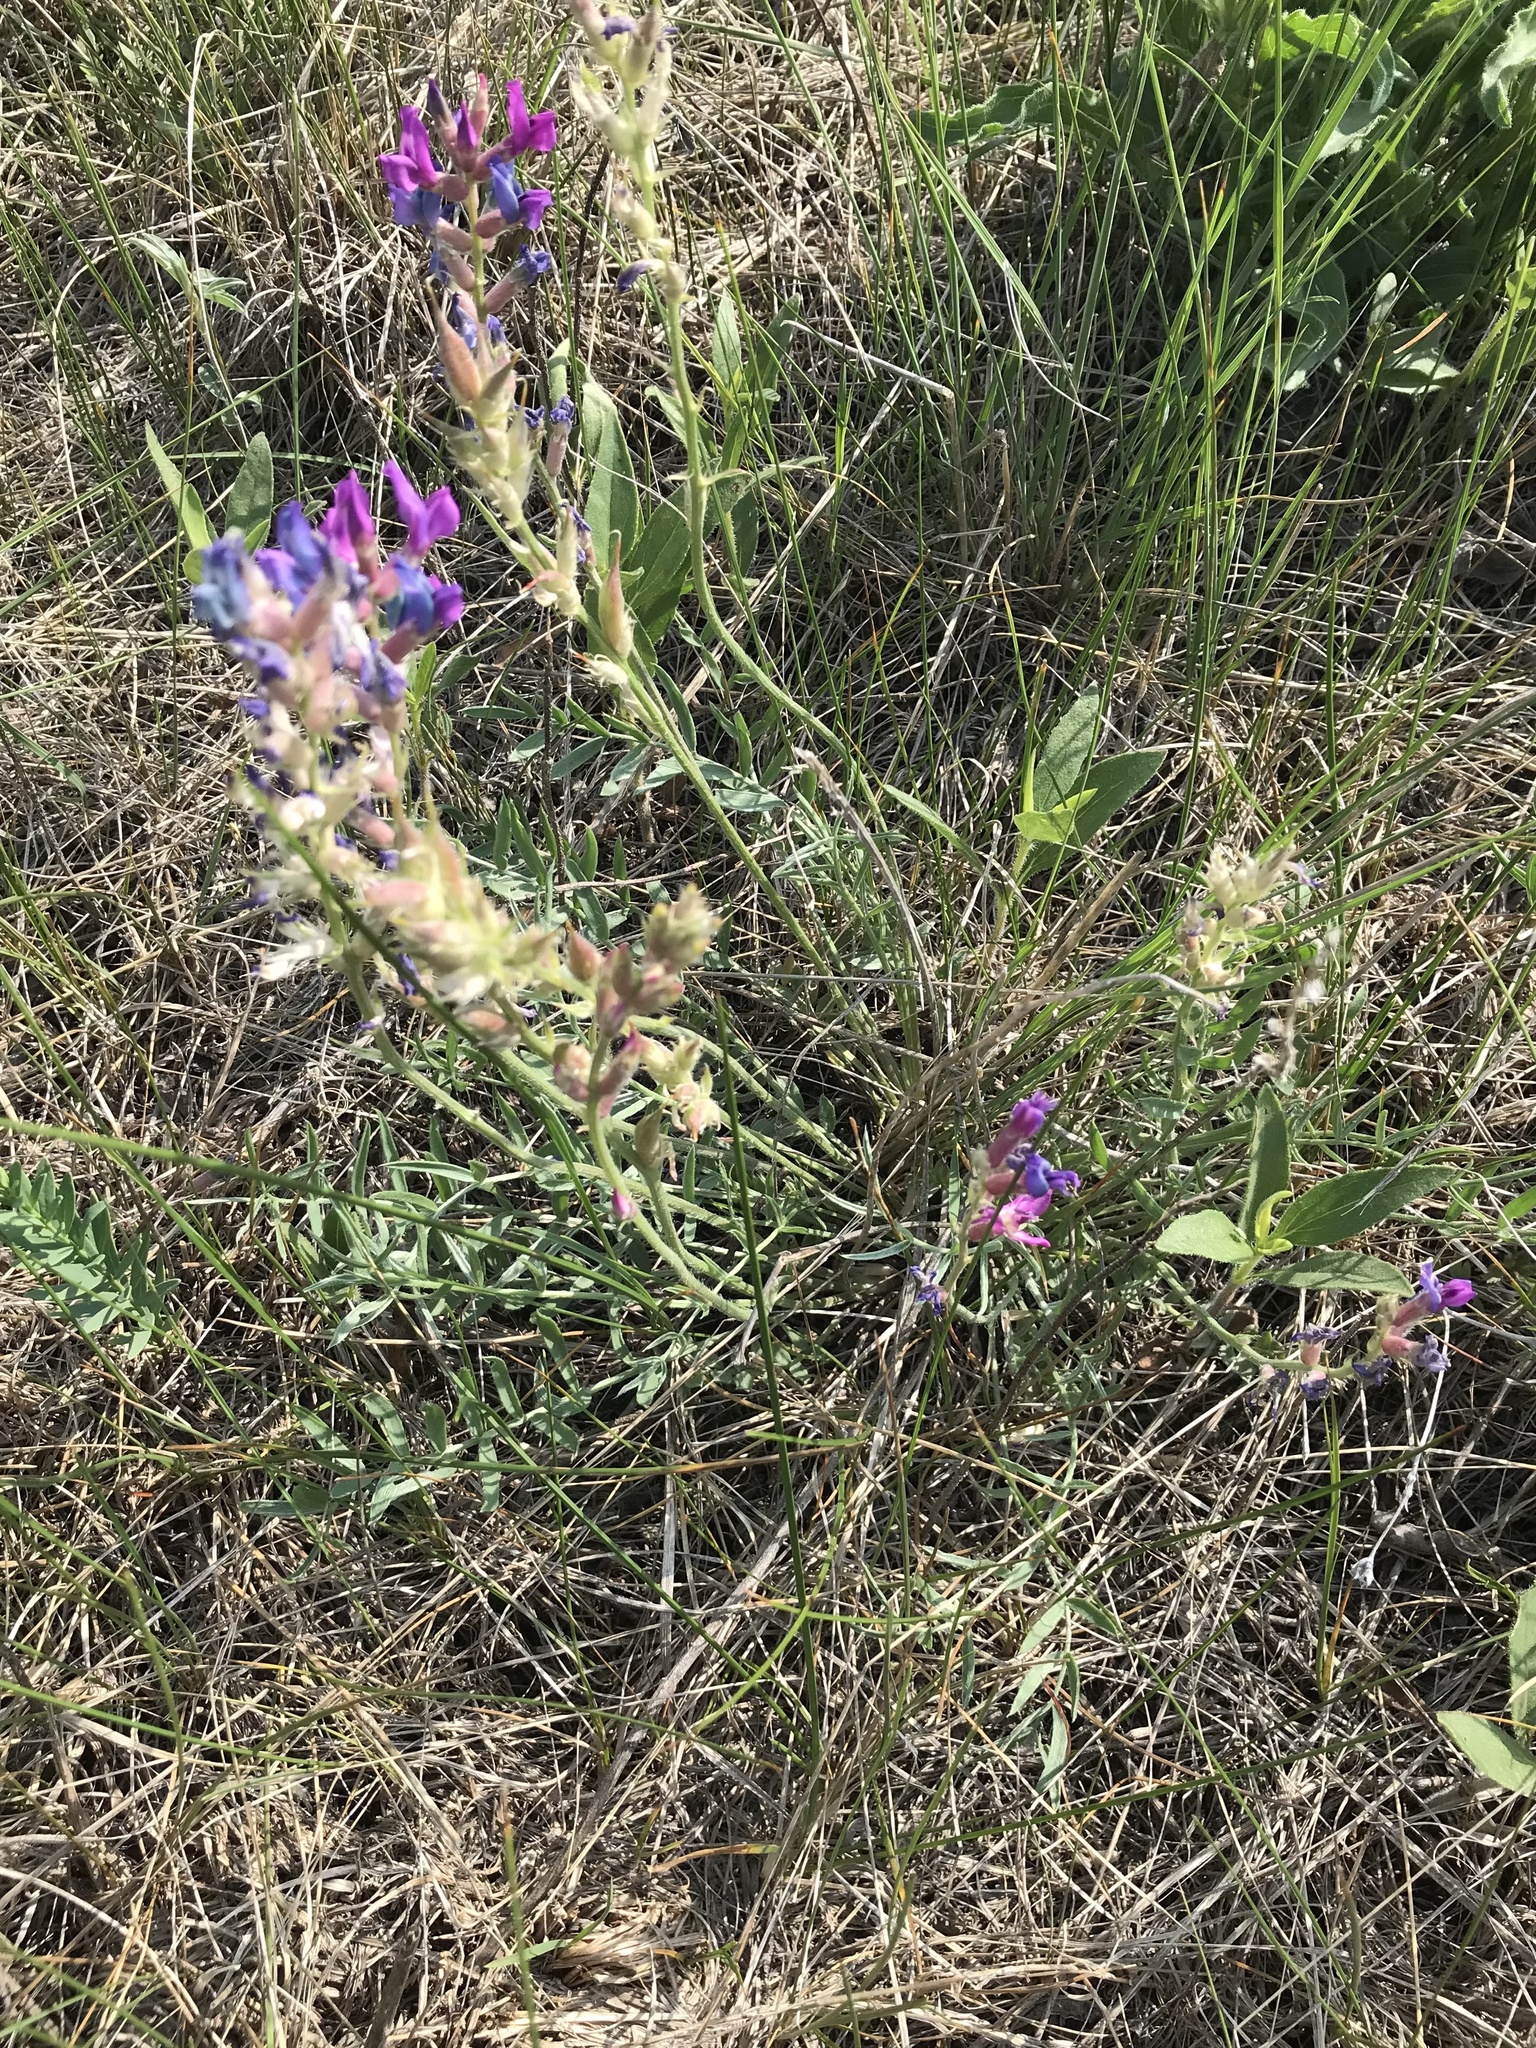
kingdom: Plantae
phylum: Tracheophyta
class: Magnoliopsida
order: Fabales
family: Fabaceae
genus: Oxytropis
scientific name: Oxytropis lambertii
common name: Purple locoweed
